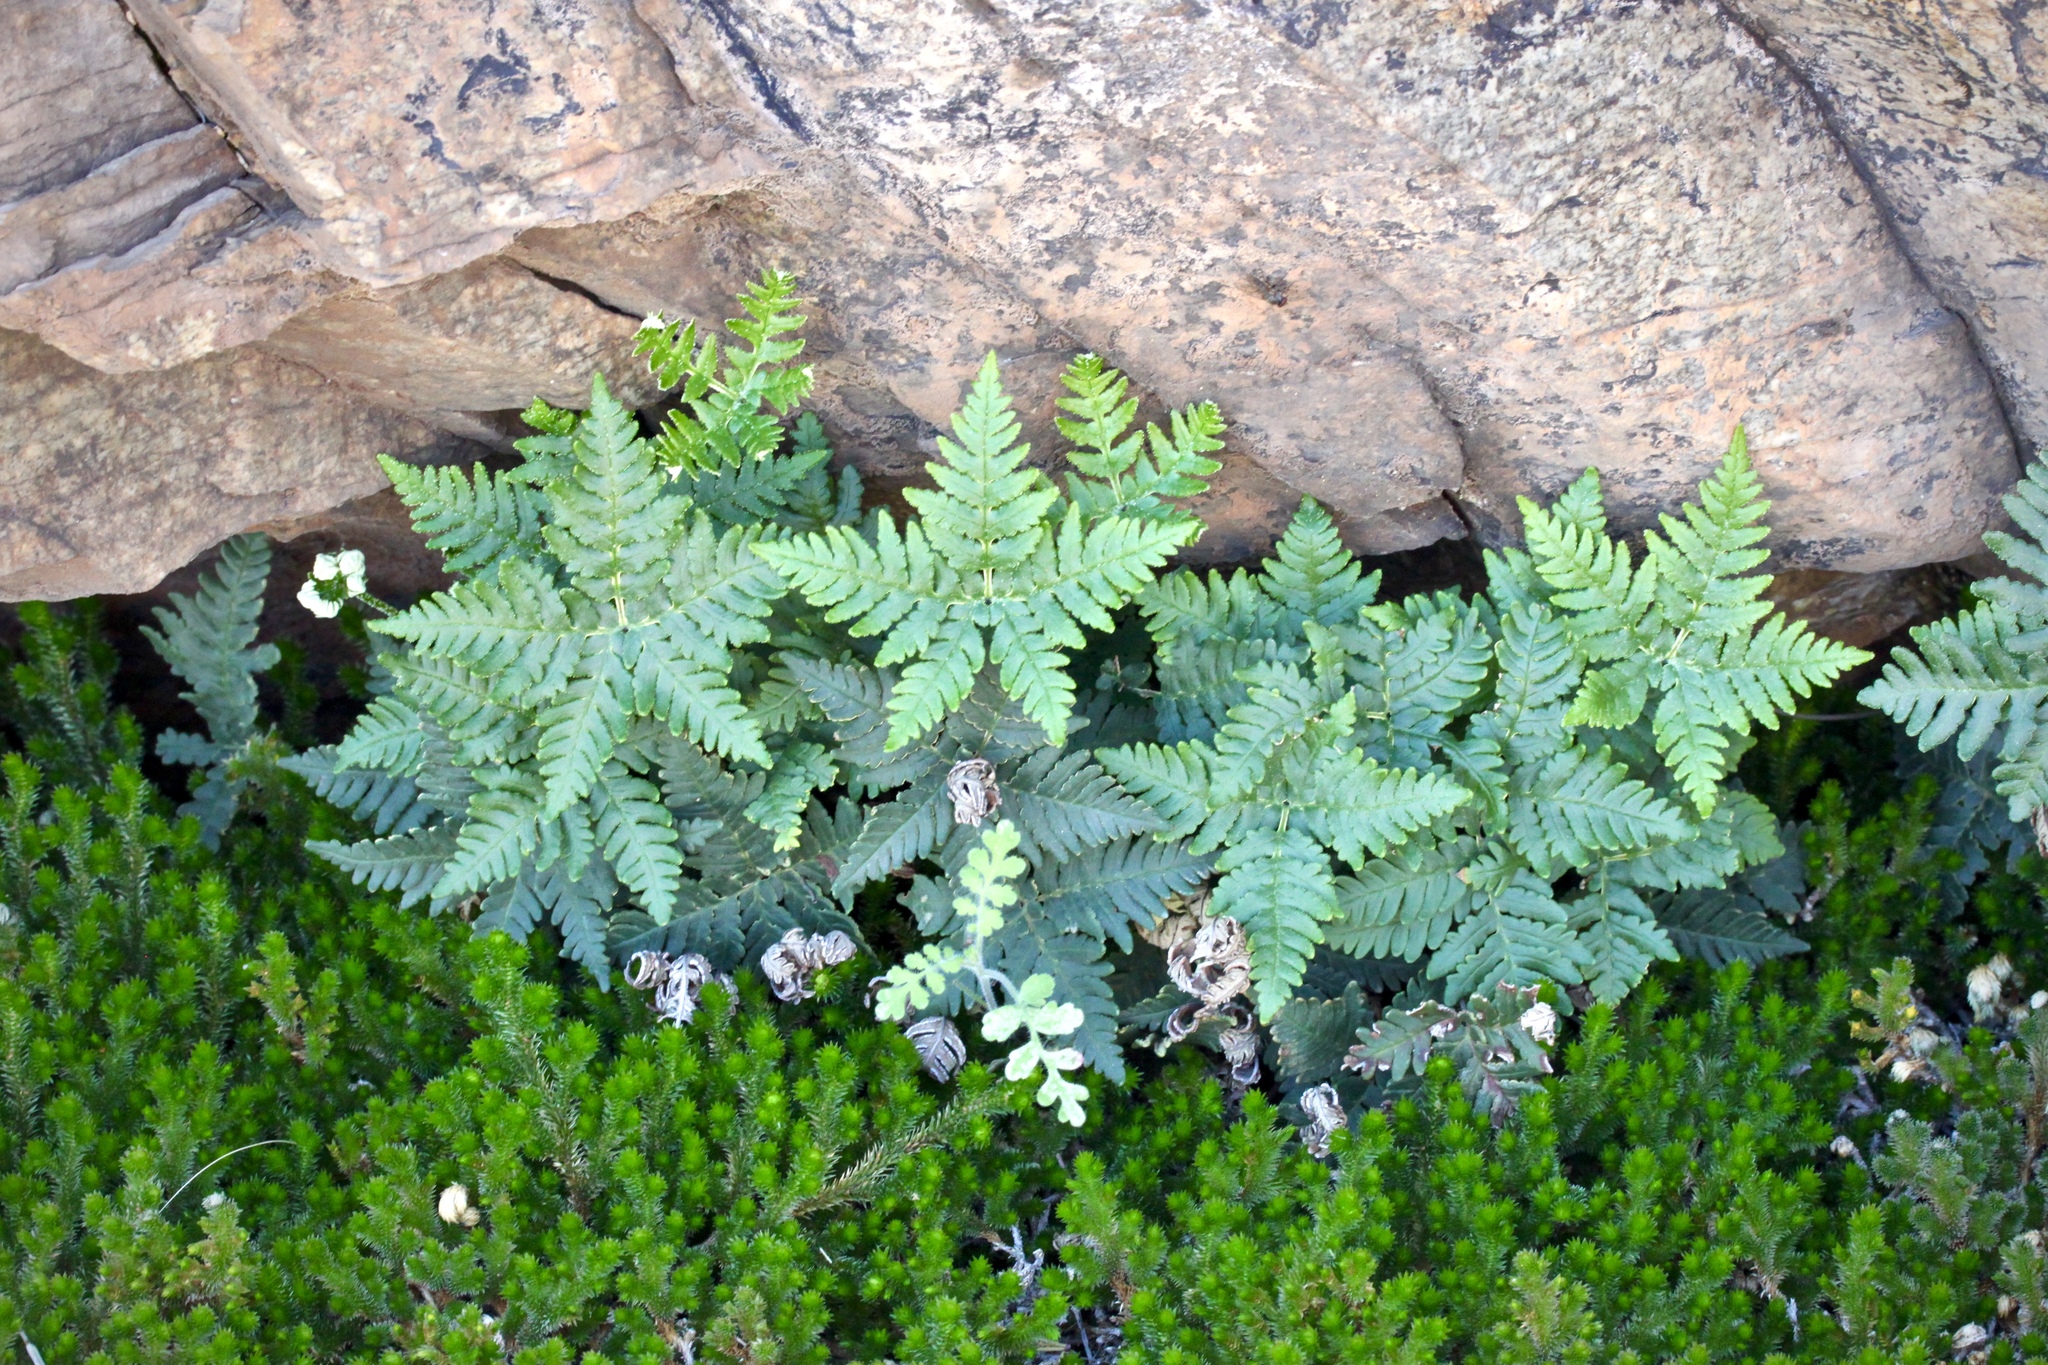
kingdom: Plantae
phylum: Tracheophyta
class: Polypodiopsida
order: Polypodiales
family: Pteridaceae
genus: Notholaena
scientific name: Notholaena standleyi
